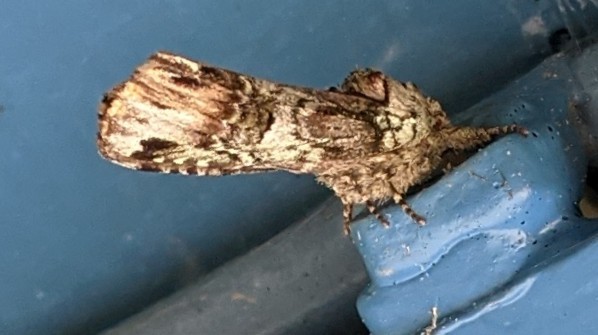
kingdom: Animalia
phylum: Arthropoda
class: Insecta
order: Lepidoptera
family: Notodontidae
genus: Schizura
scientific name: Schizura
